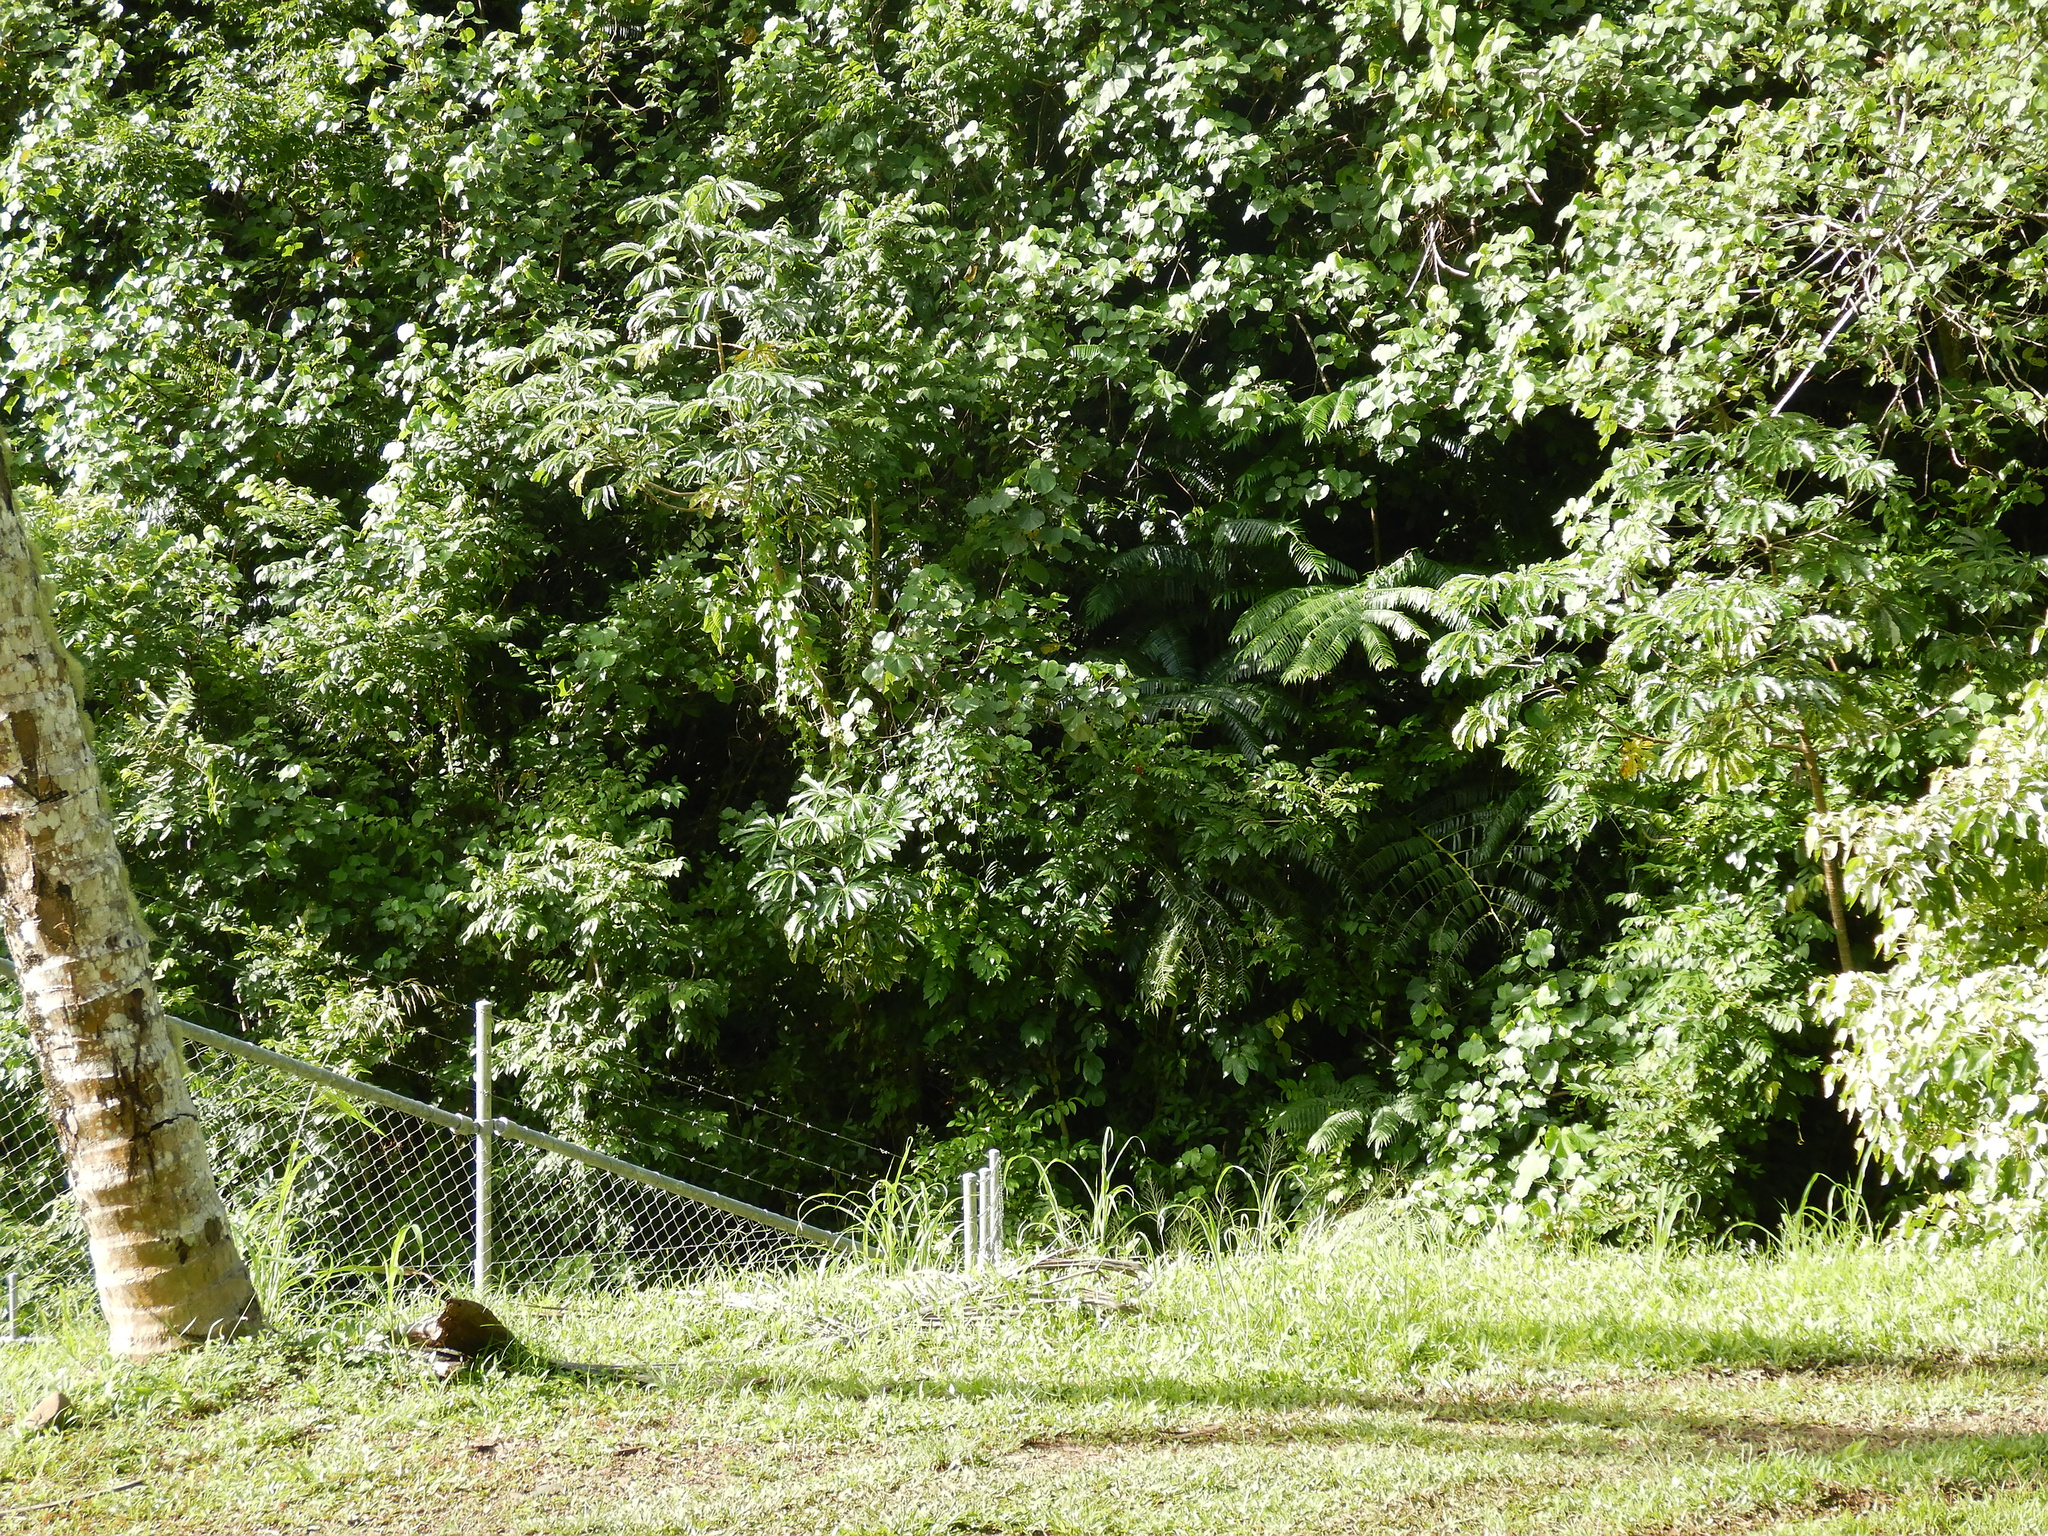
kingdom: Plantae
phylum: Tracheophyta
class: Magnoliopsida
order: Rosales
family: Urticaceae
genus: Cecropia
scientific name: Cecropia pachystachya
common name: Ambay pumpwood
